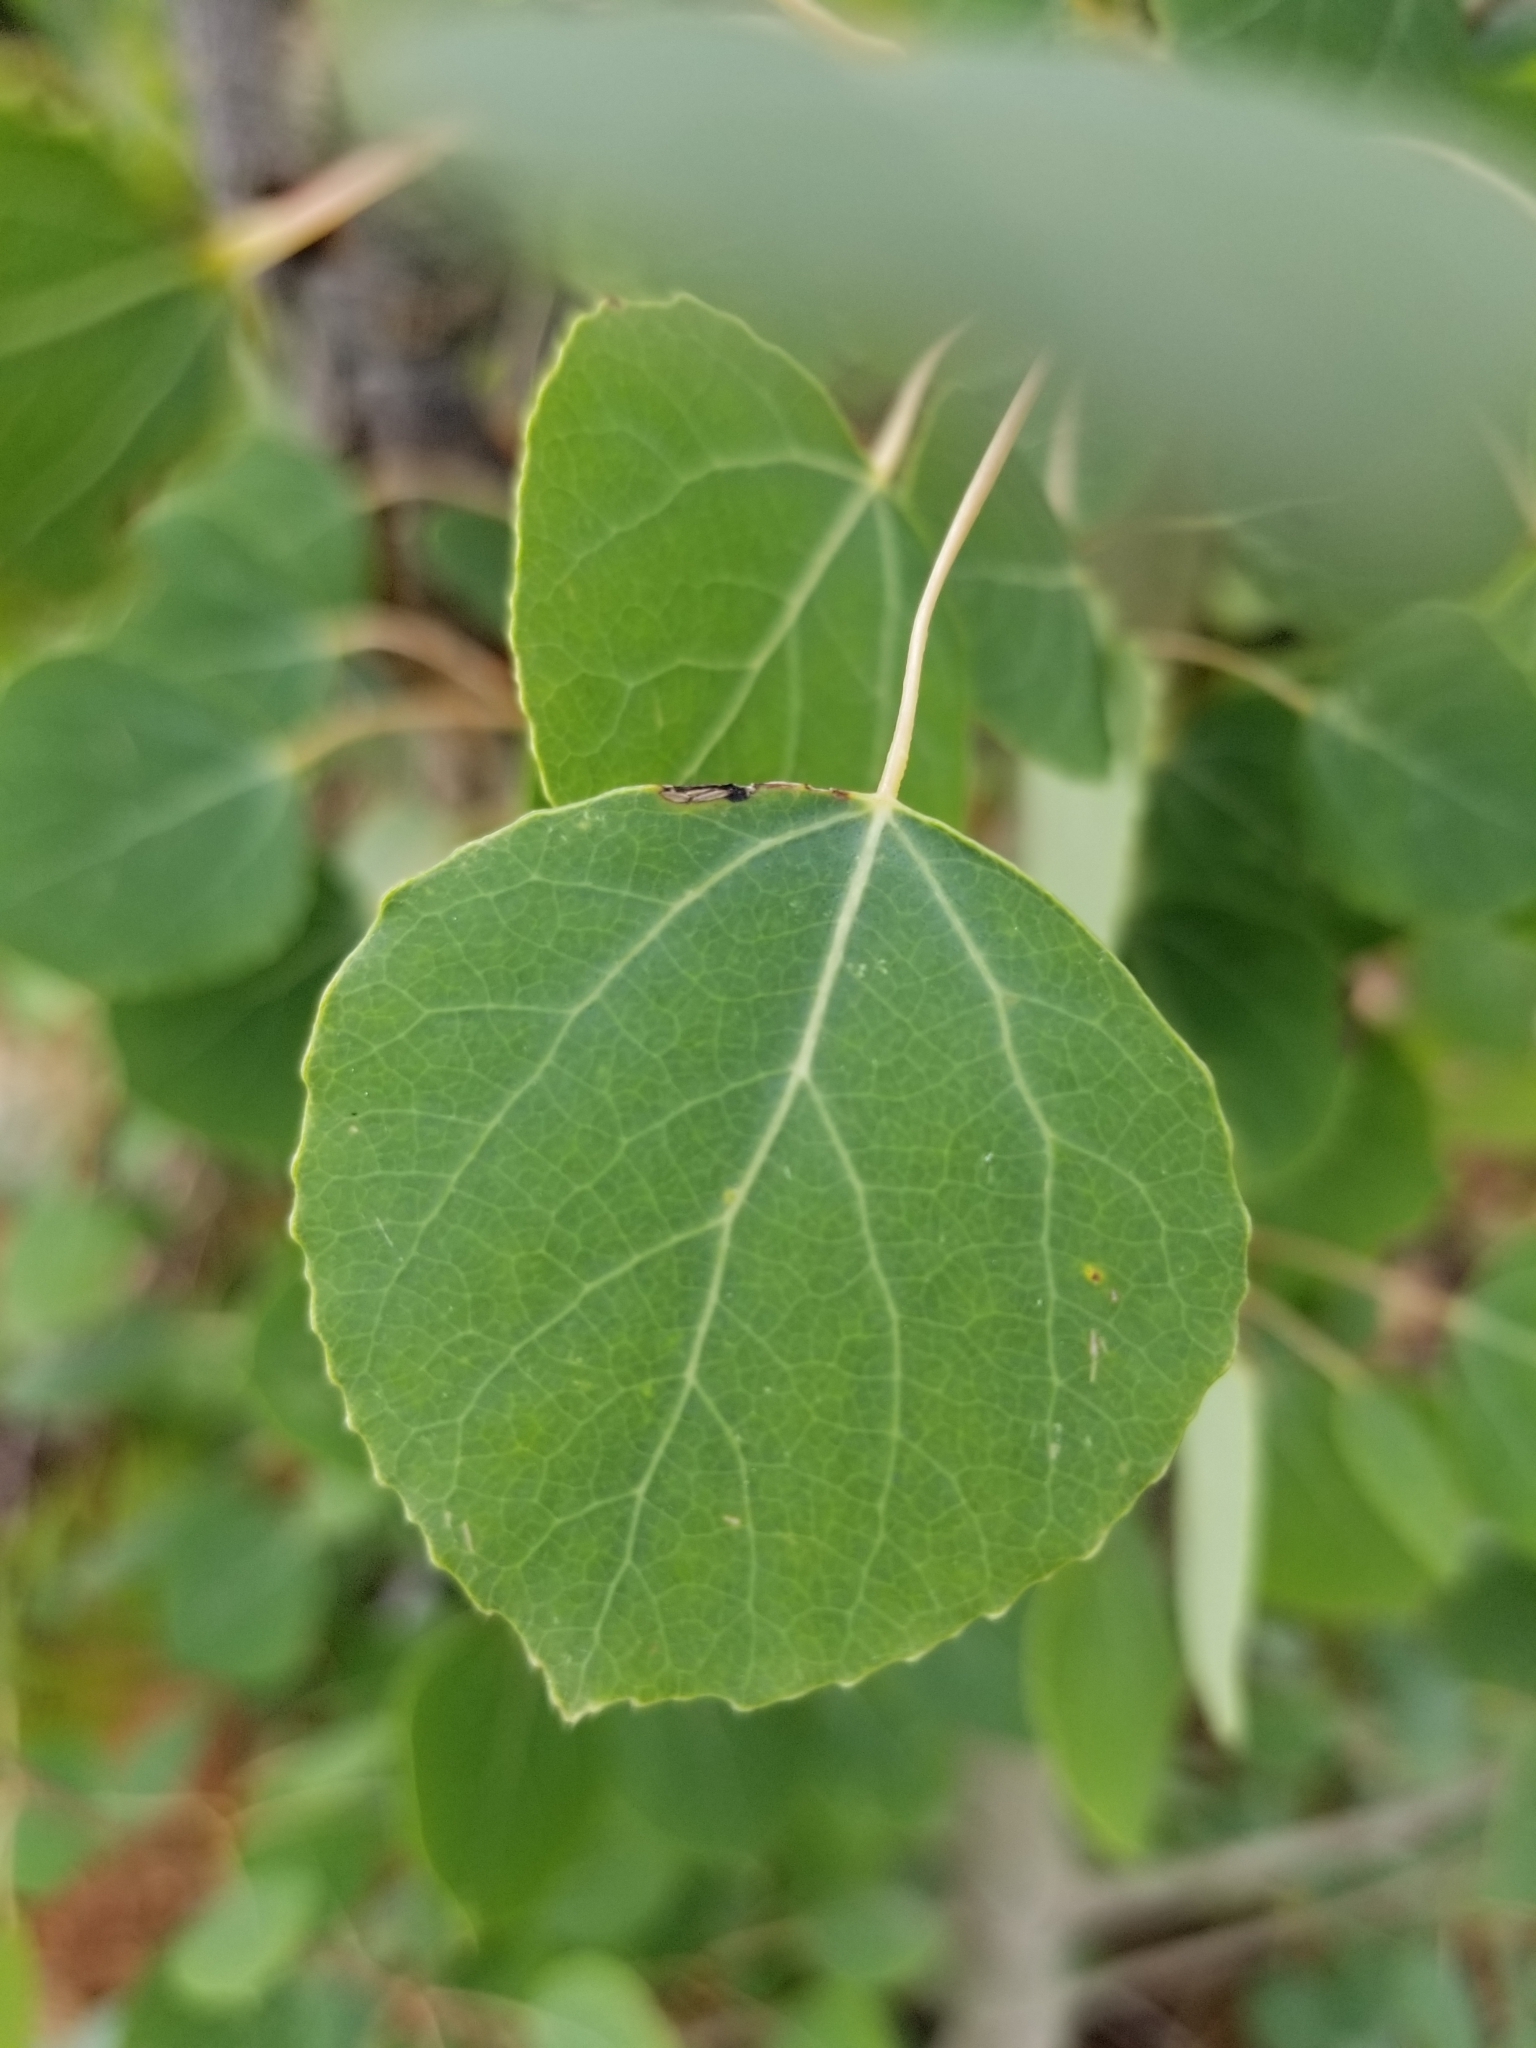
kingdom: Plantae
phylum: Tracheophyta
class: Magnoliopsida
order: Malpighiales
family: Salicaceae
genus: Populus
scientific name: Populus tremuloides
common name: Quaking aspen
